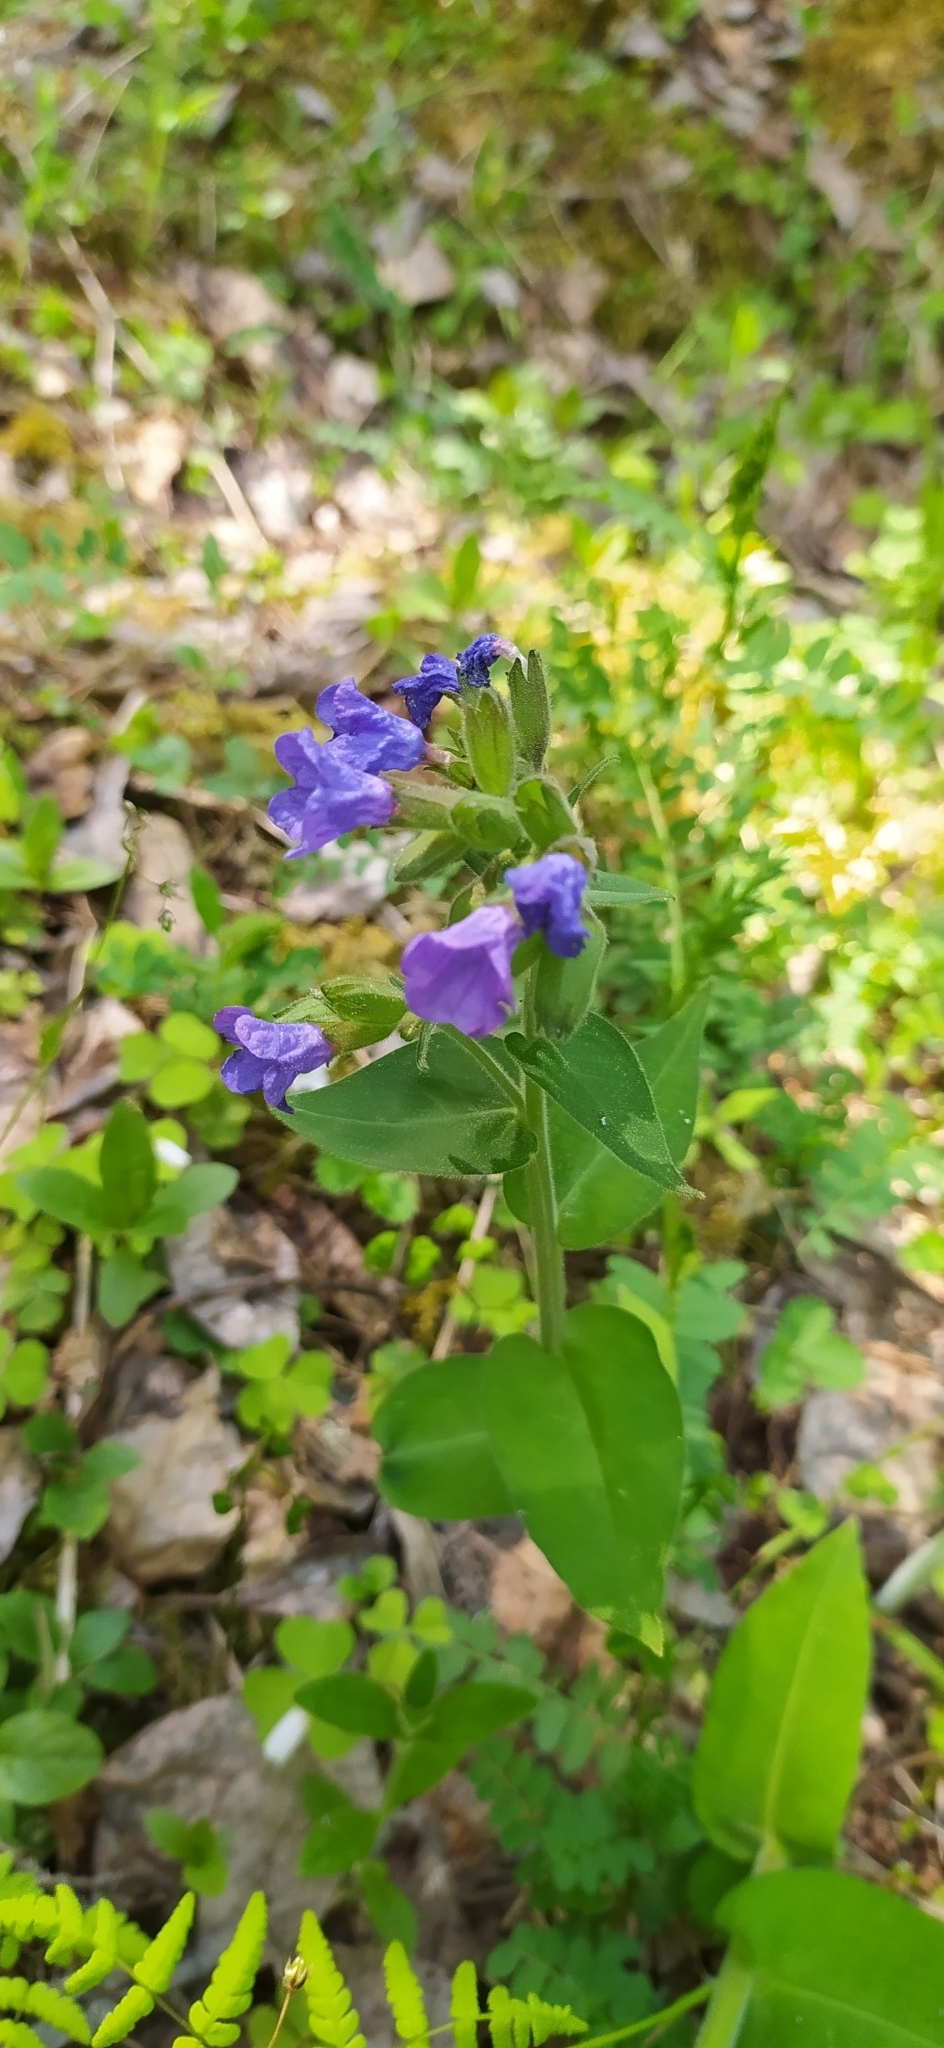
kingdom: Plantae
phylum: Tracheophyta
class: Magnoliopsida
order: Boraginales
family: Boraginaceae
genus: Pulmonaria
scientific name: Pulmonaria mollis
